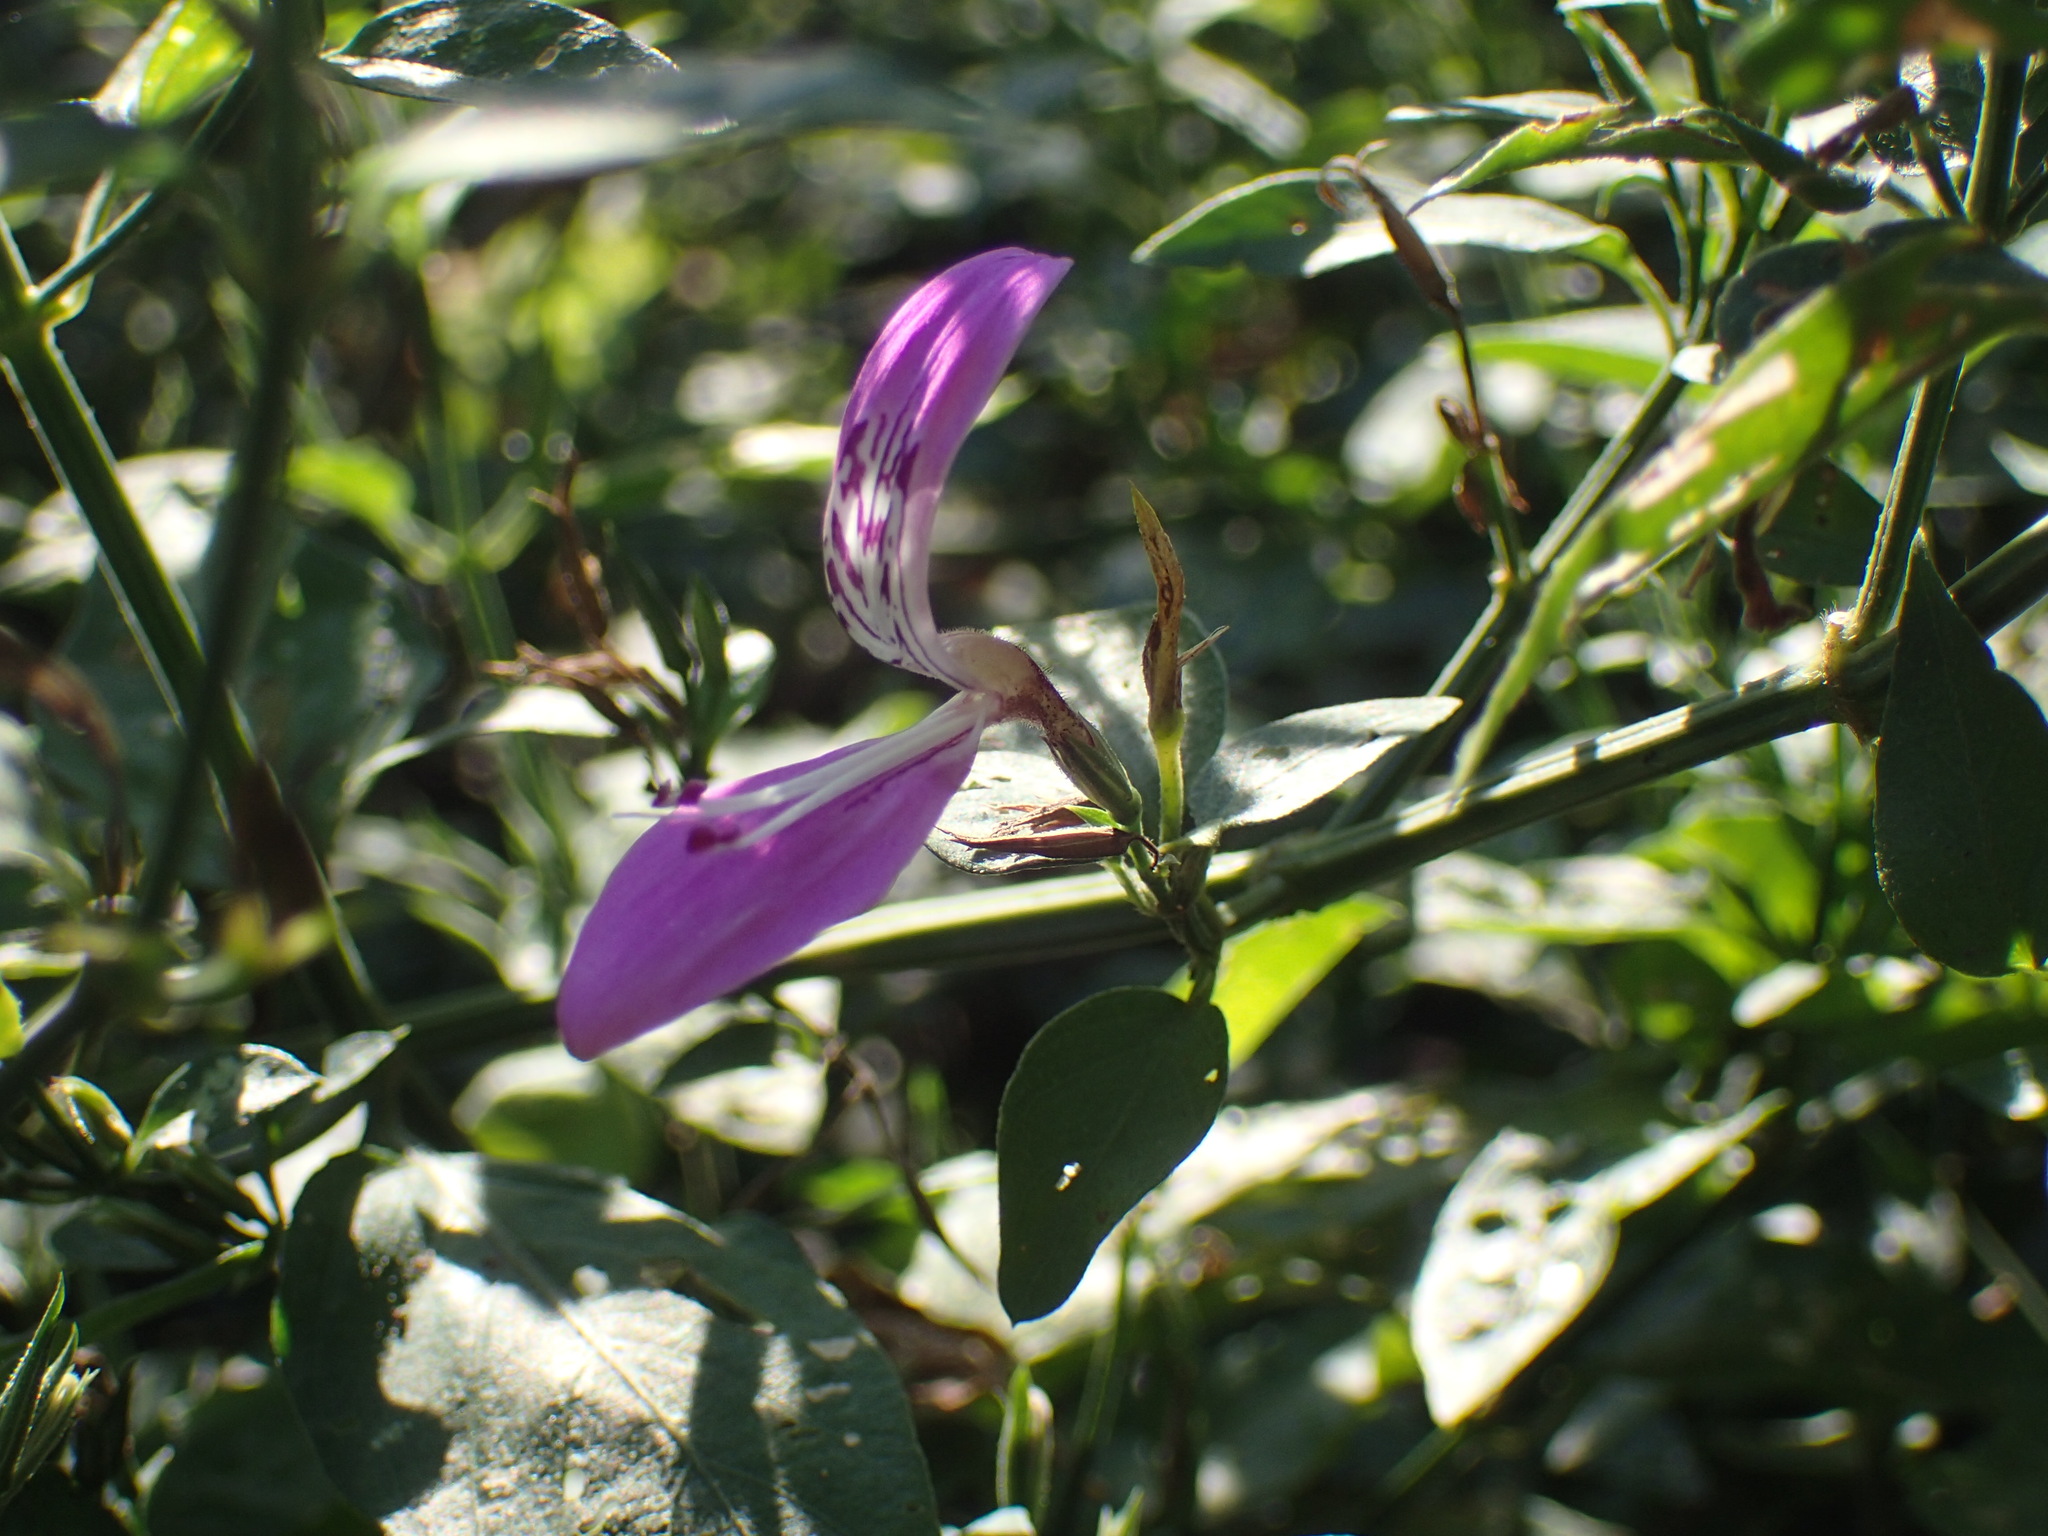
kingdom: Plantae
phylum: Tracheophyta
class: Magnoliopsida
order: Lamiales
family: Acanthaceae
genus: Dicliptera
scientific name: Dicliptera cernua
